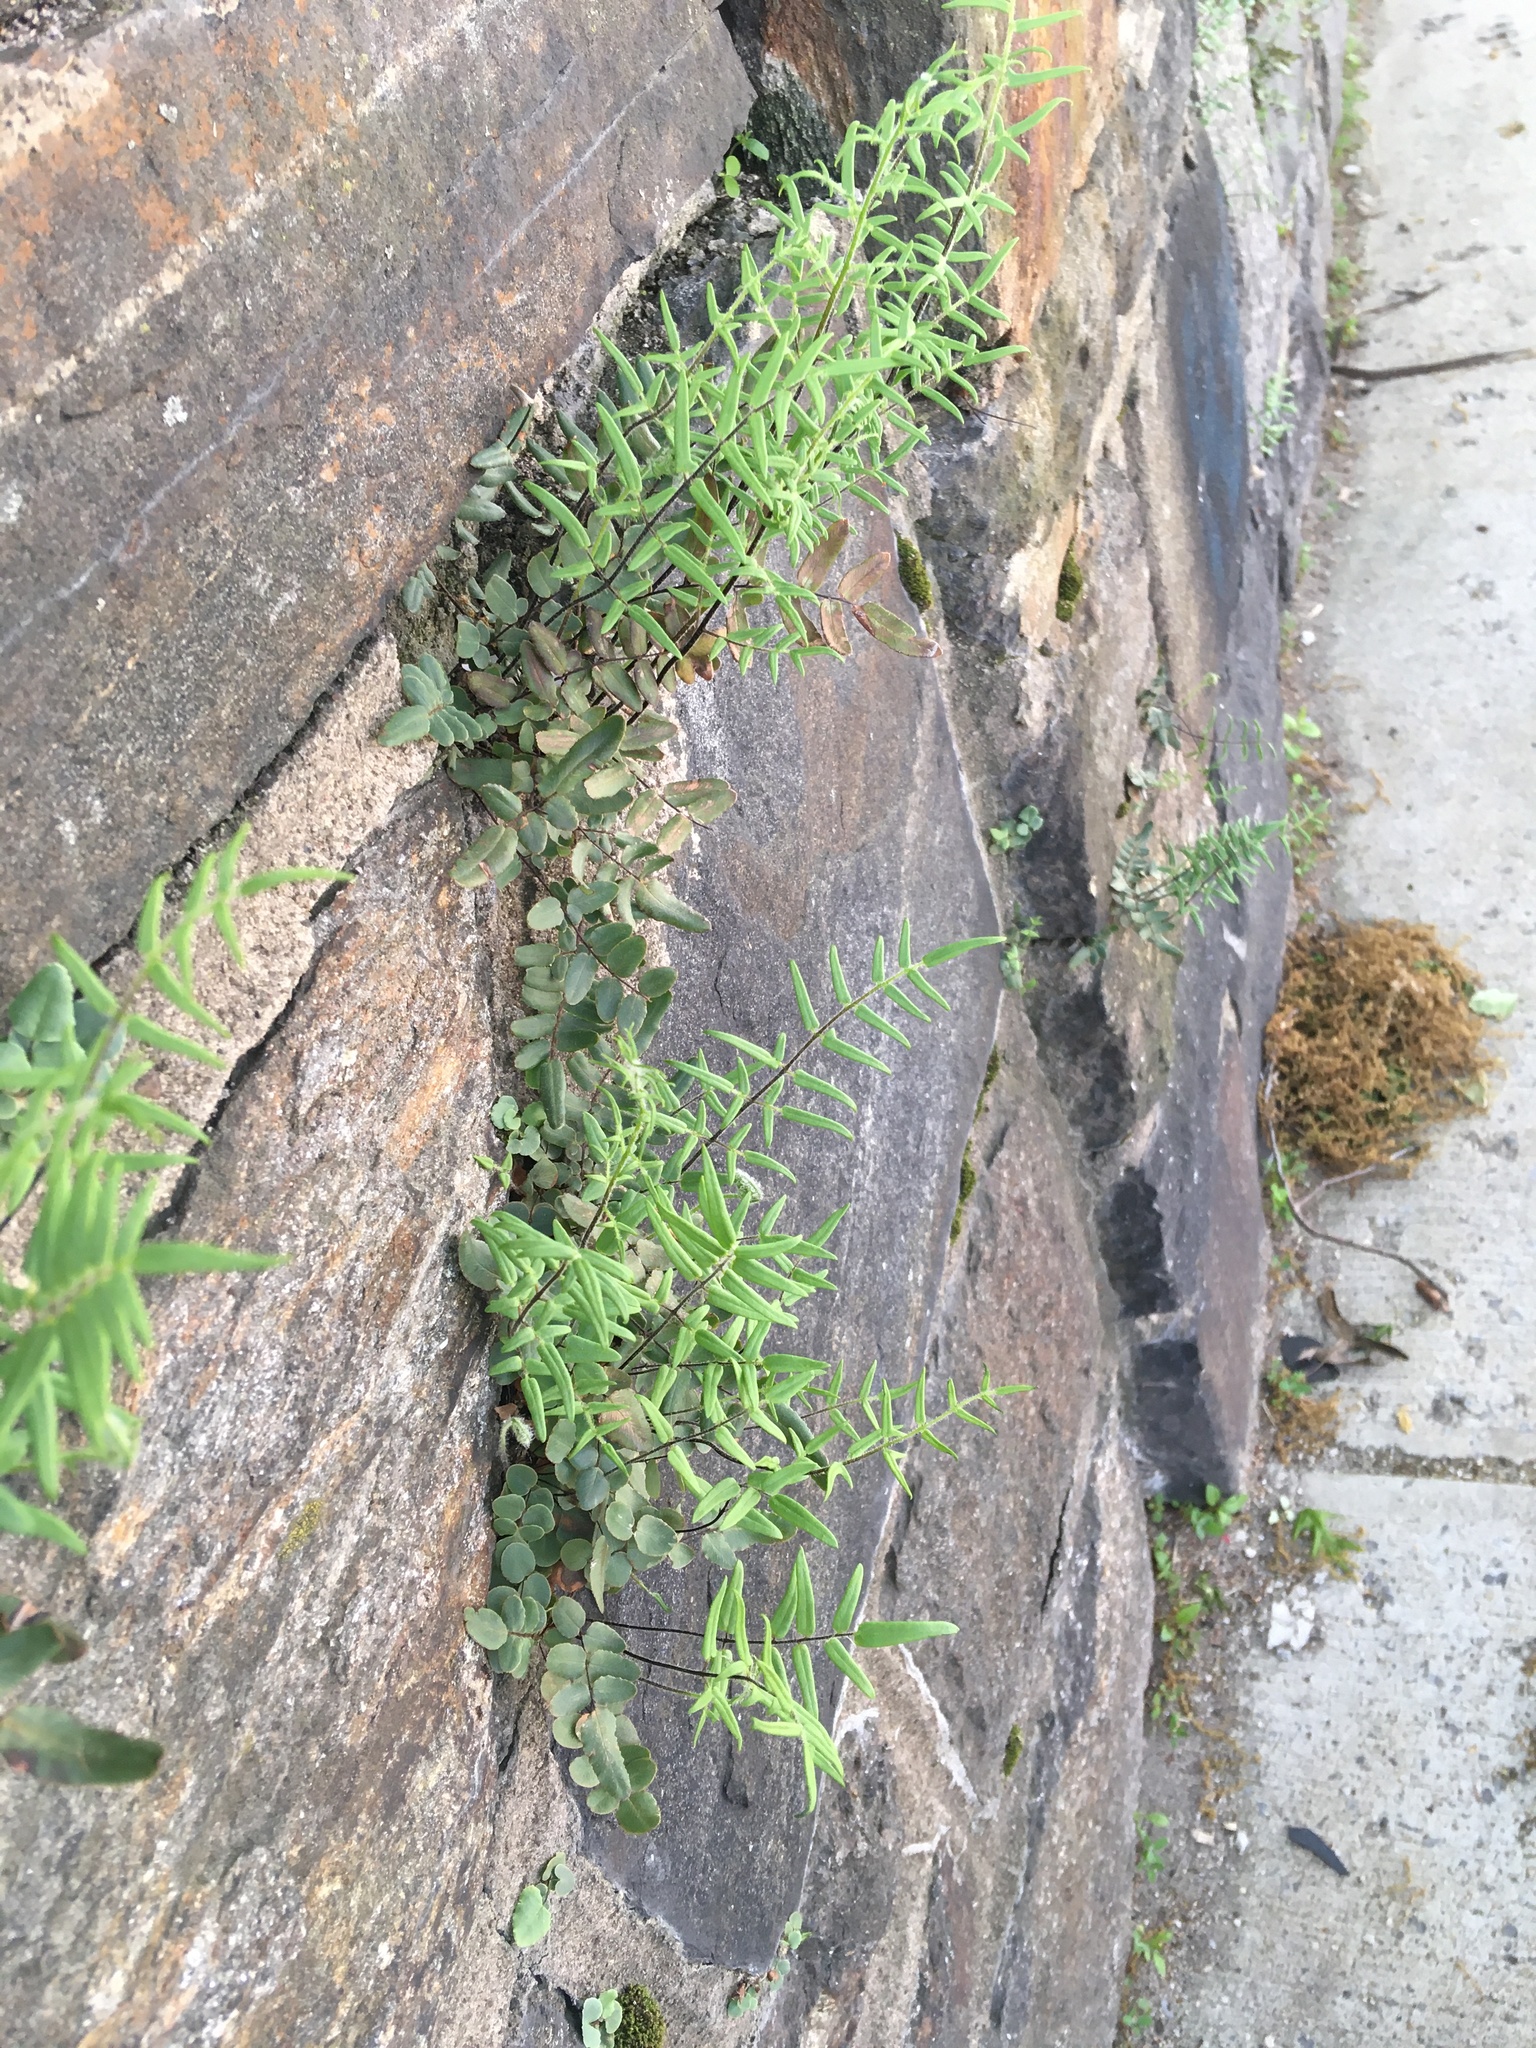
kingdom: Plantae
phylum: Tracheophyta
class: Polypodiopsida
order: Polypodiales
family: Pteridaceae
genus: Pellaea
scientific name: Pellaea atropurpurea
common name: Hairy cliffbrake
